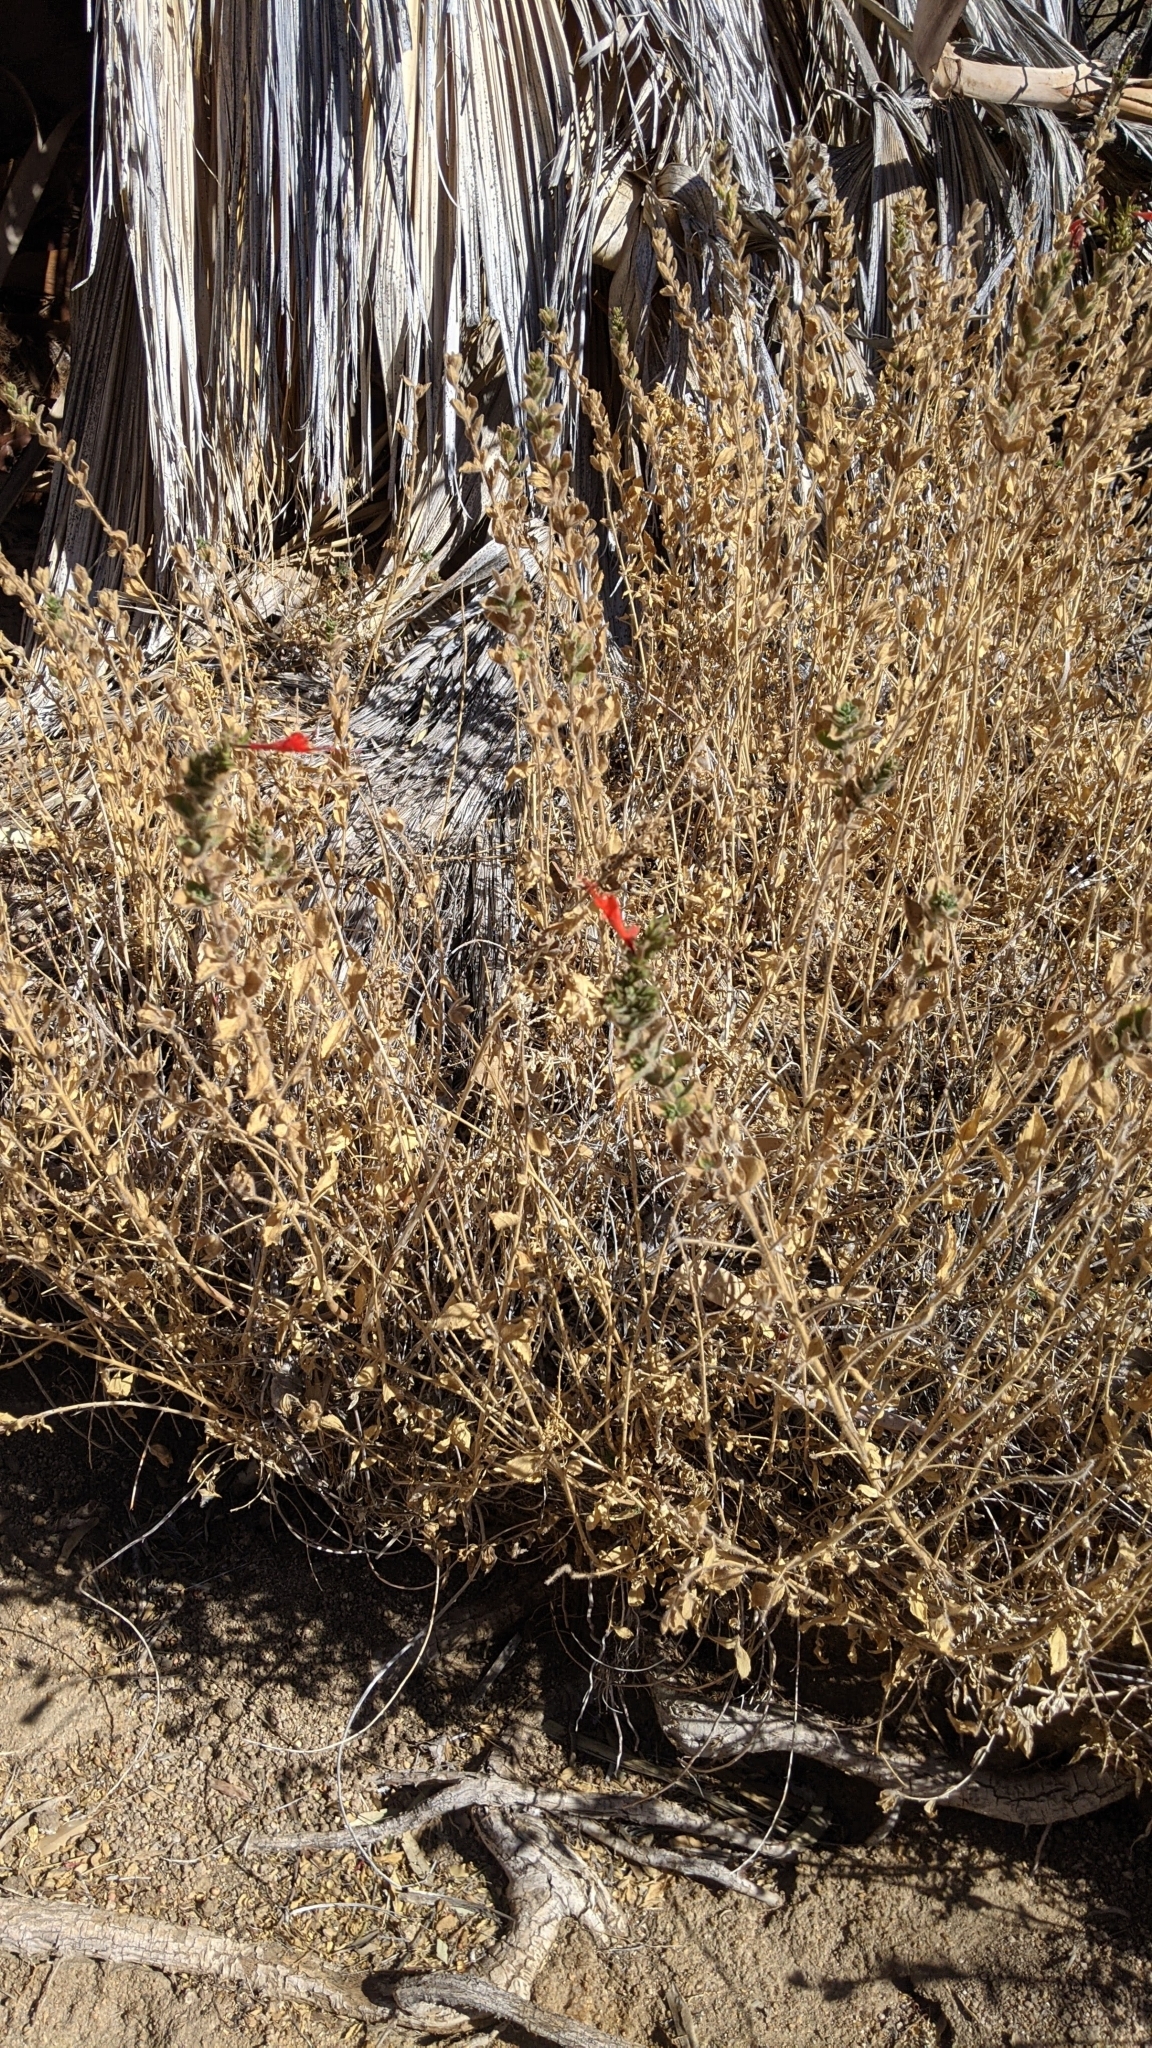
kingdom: Plantae
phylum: Tracheophyta
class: Magnoliopsida
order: Myrtales
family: Onagraceae
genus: Epilobium
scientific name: Epilobium canum
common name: California-fuchsia
